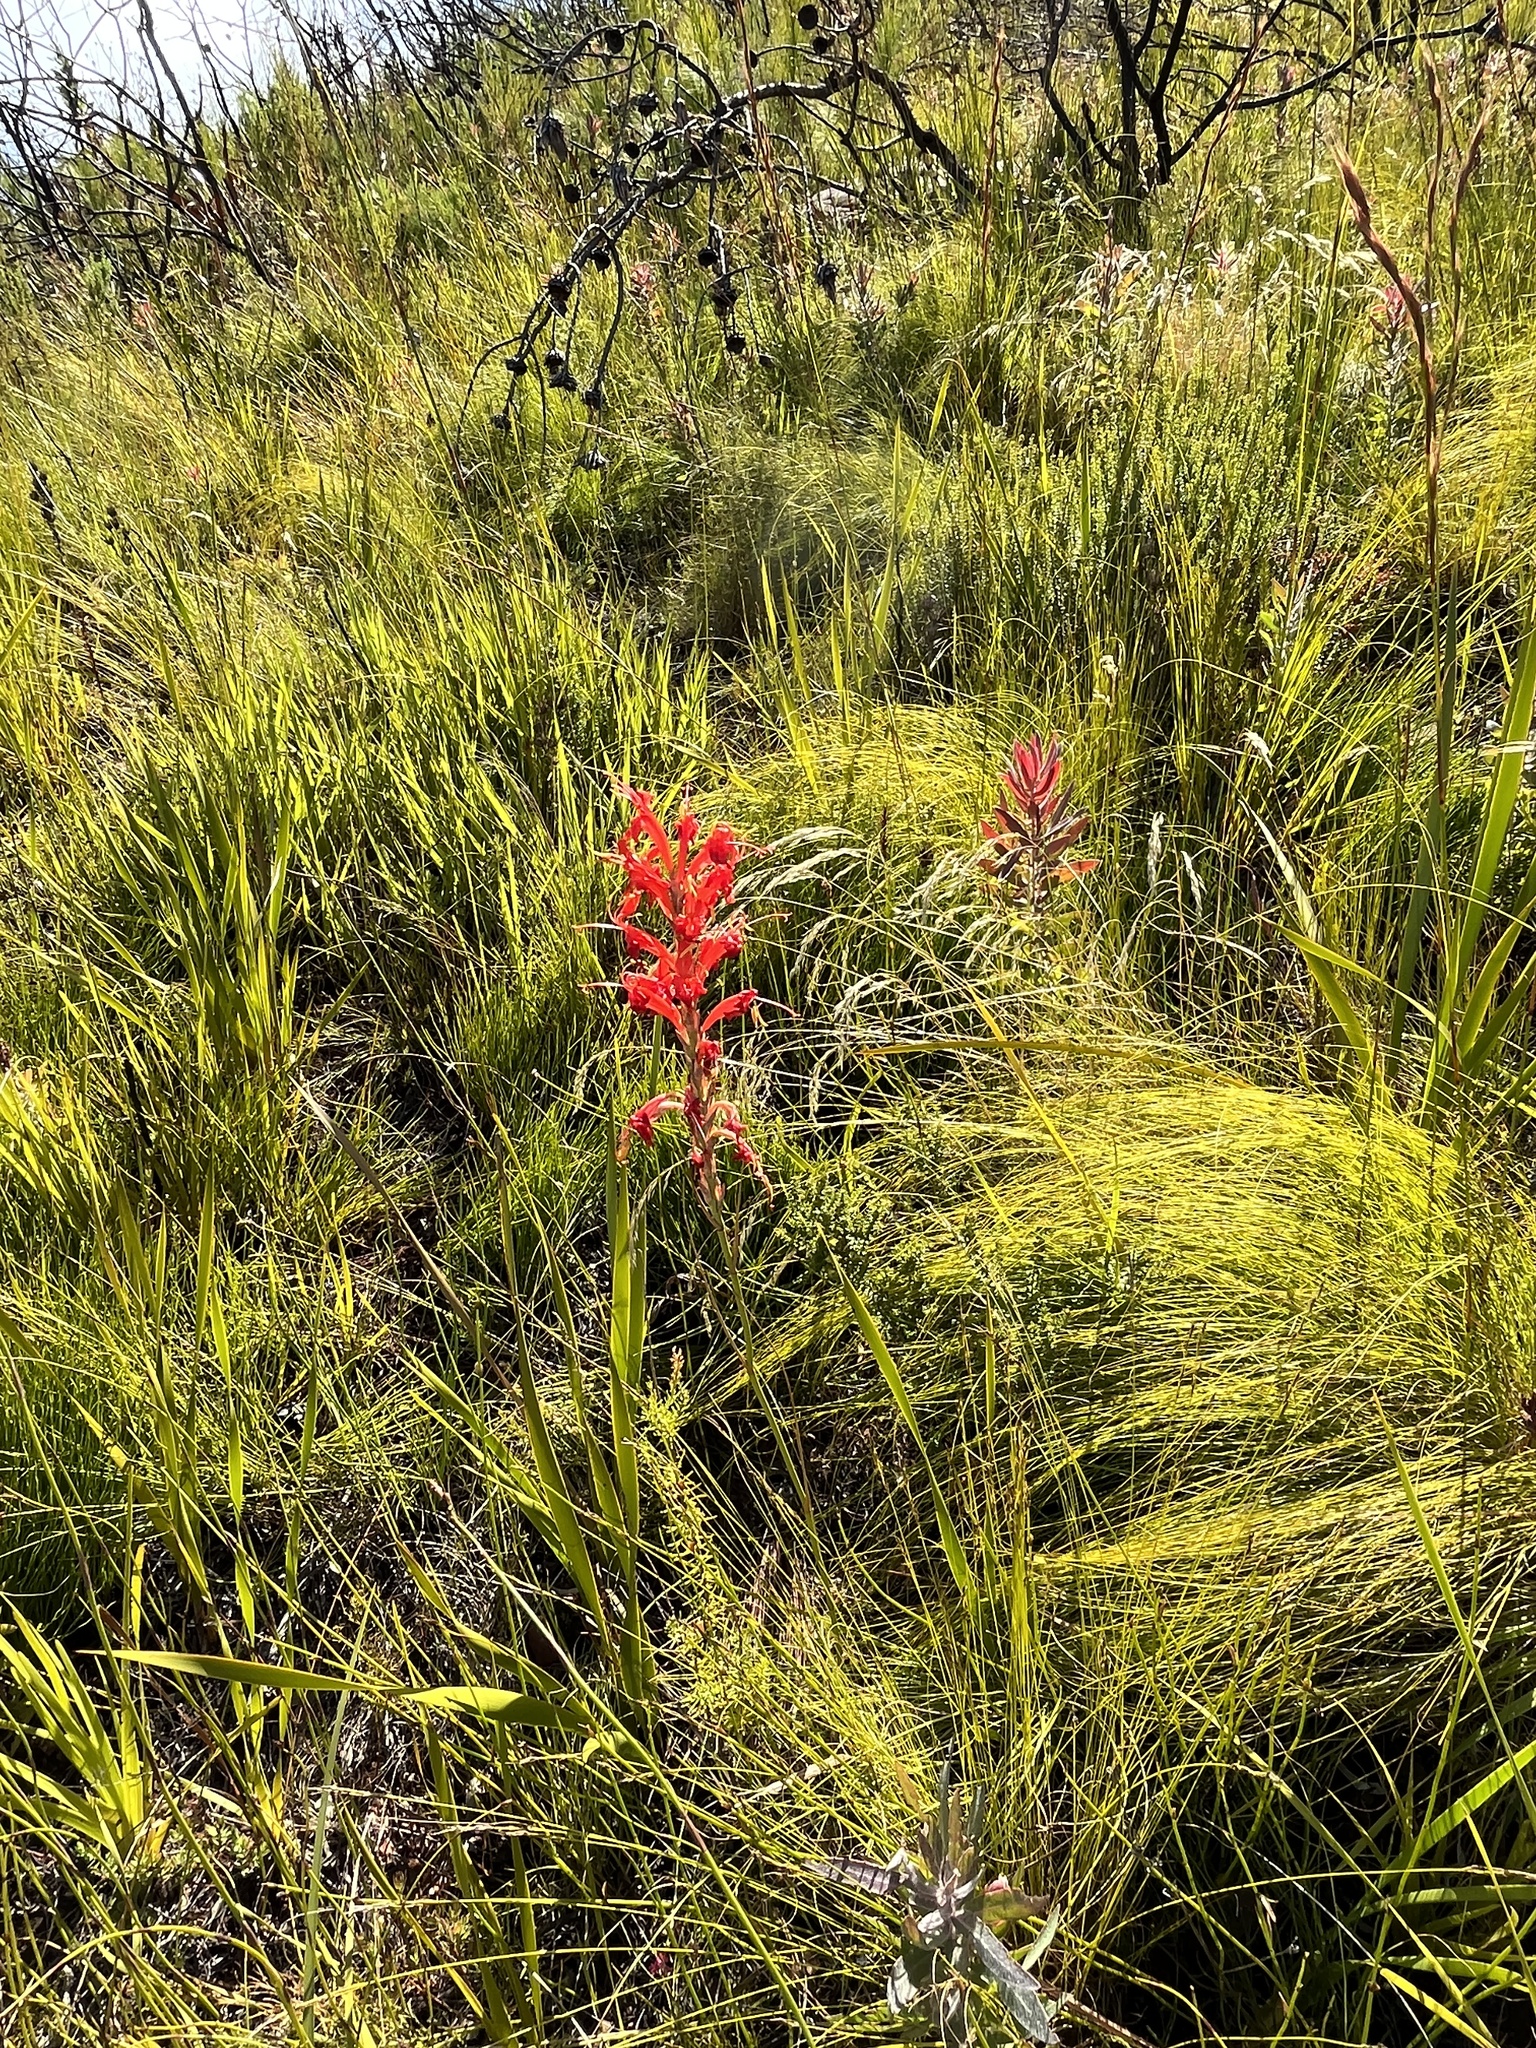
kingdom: Plantae
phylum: Tracheophyta
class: Liliopsida
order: Asparagales
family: Iridaceae
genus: Tritoniopsis
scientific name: Tritoniopsis triticea
